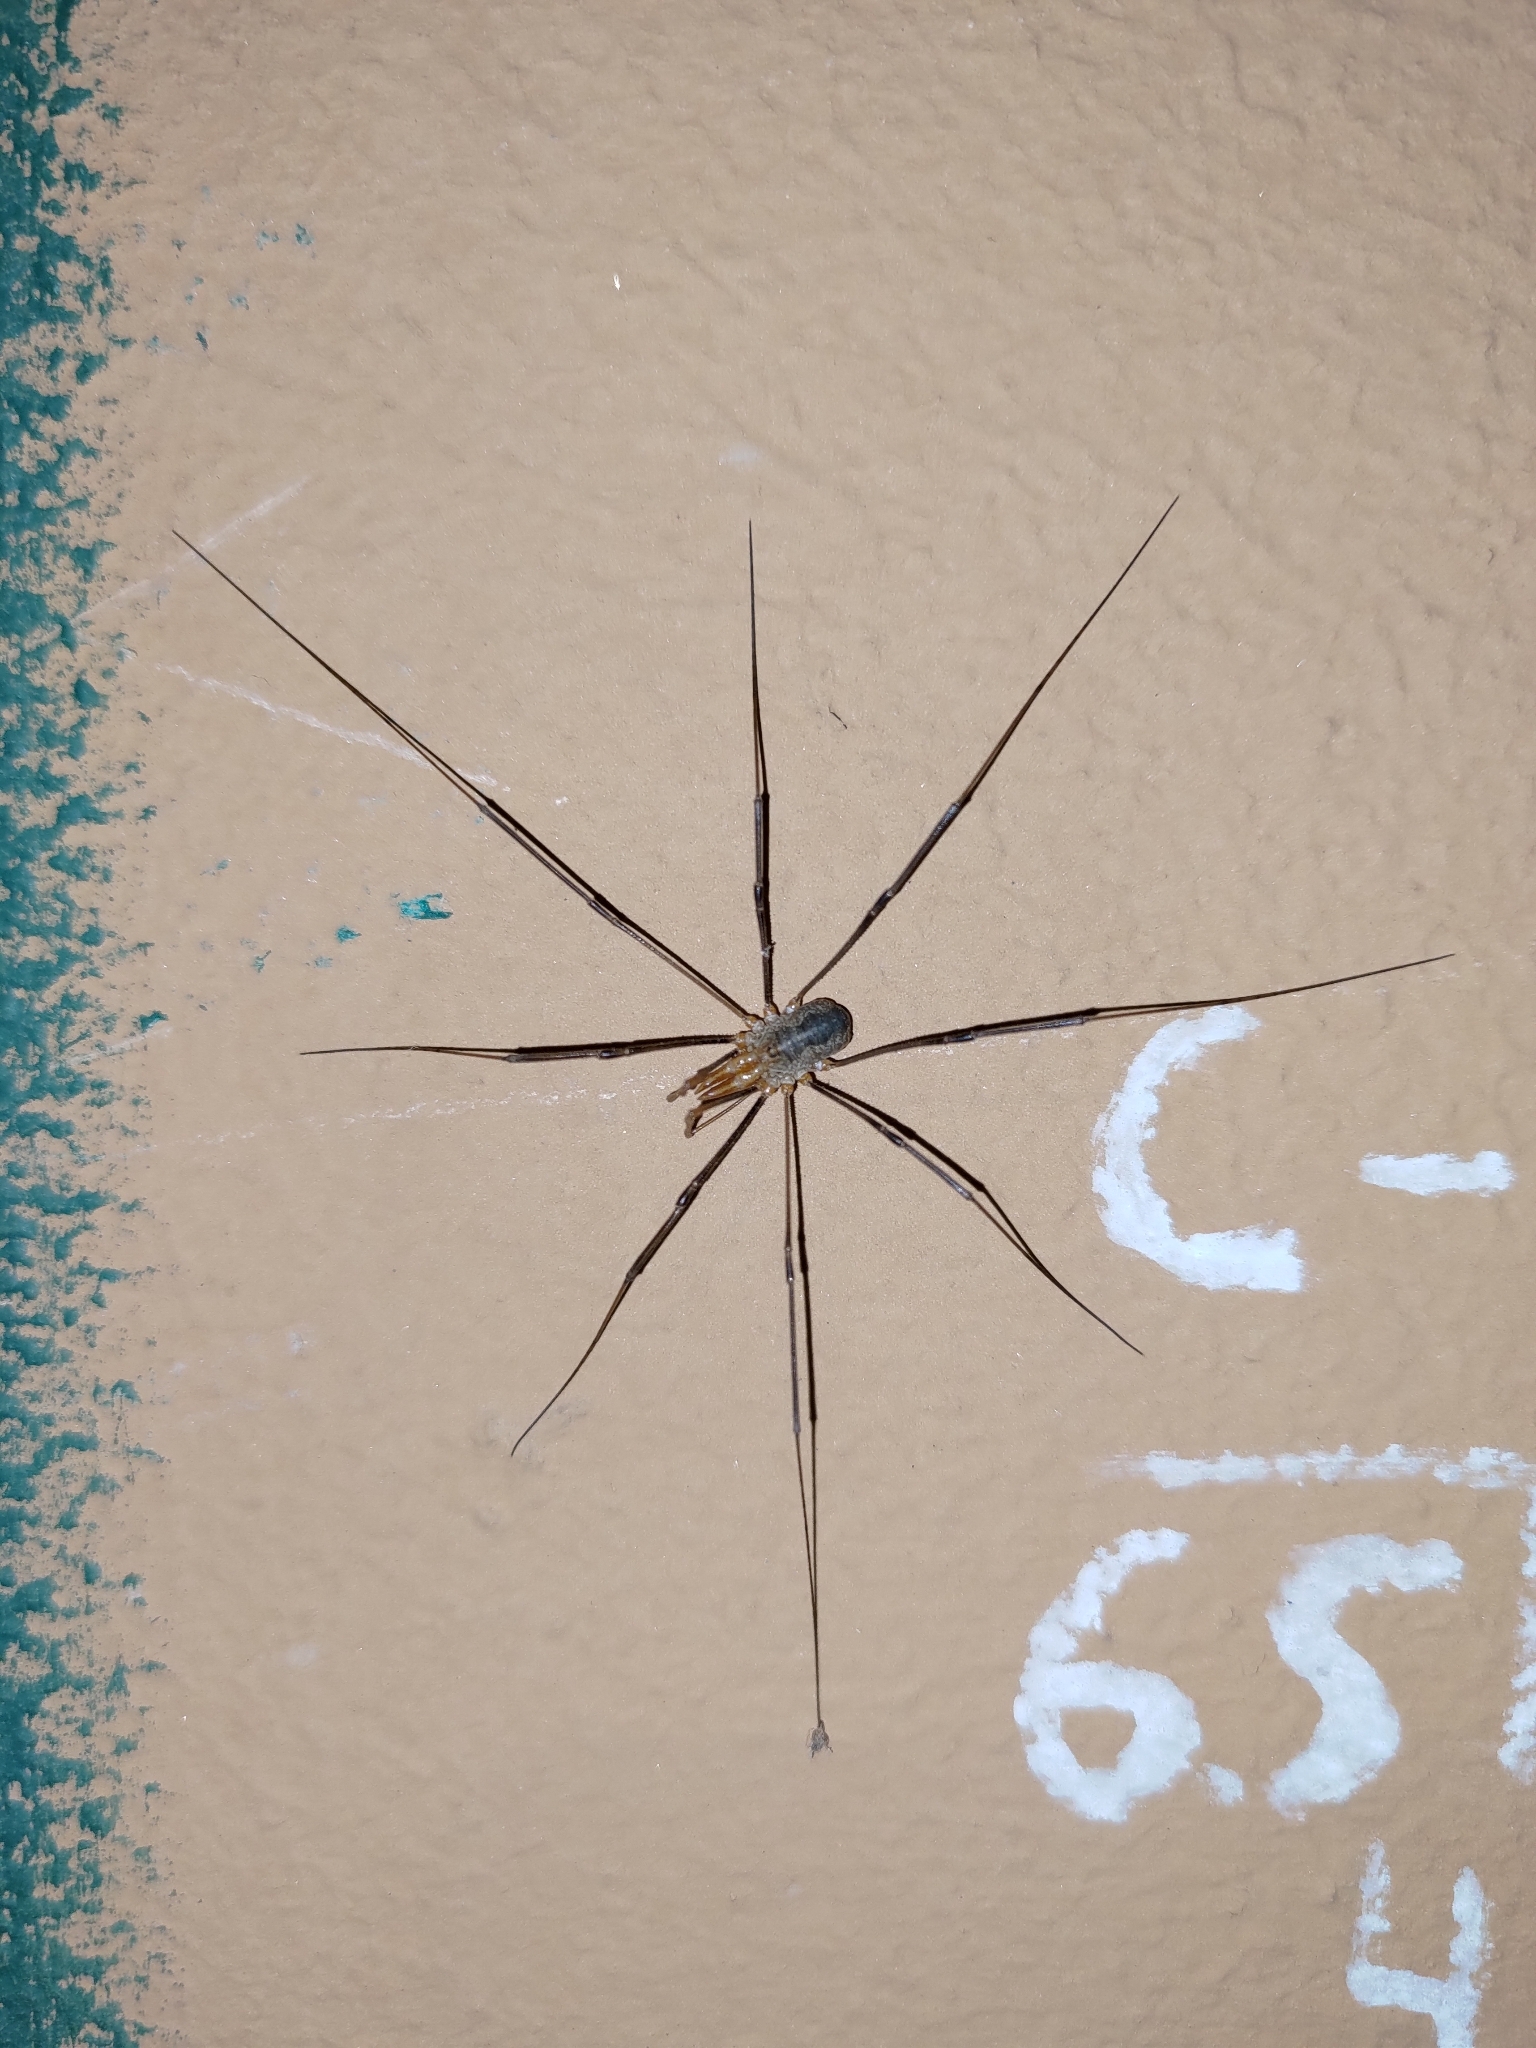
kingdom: Animalia
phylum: Arthropoda
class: Arachnida
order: Opiliones
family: Phalangiidae
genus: Phalangium
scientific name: Phalangium opilio
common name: Daddy longleg
